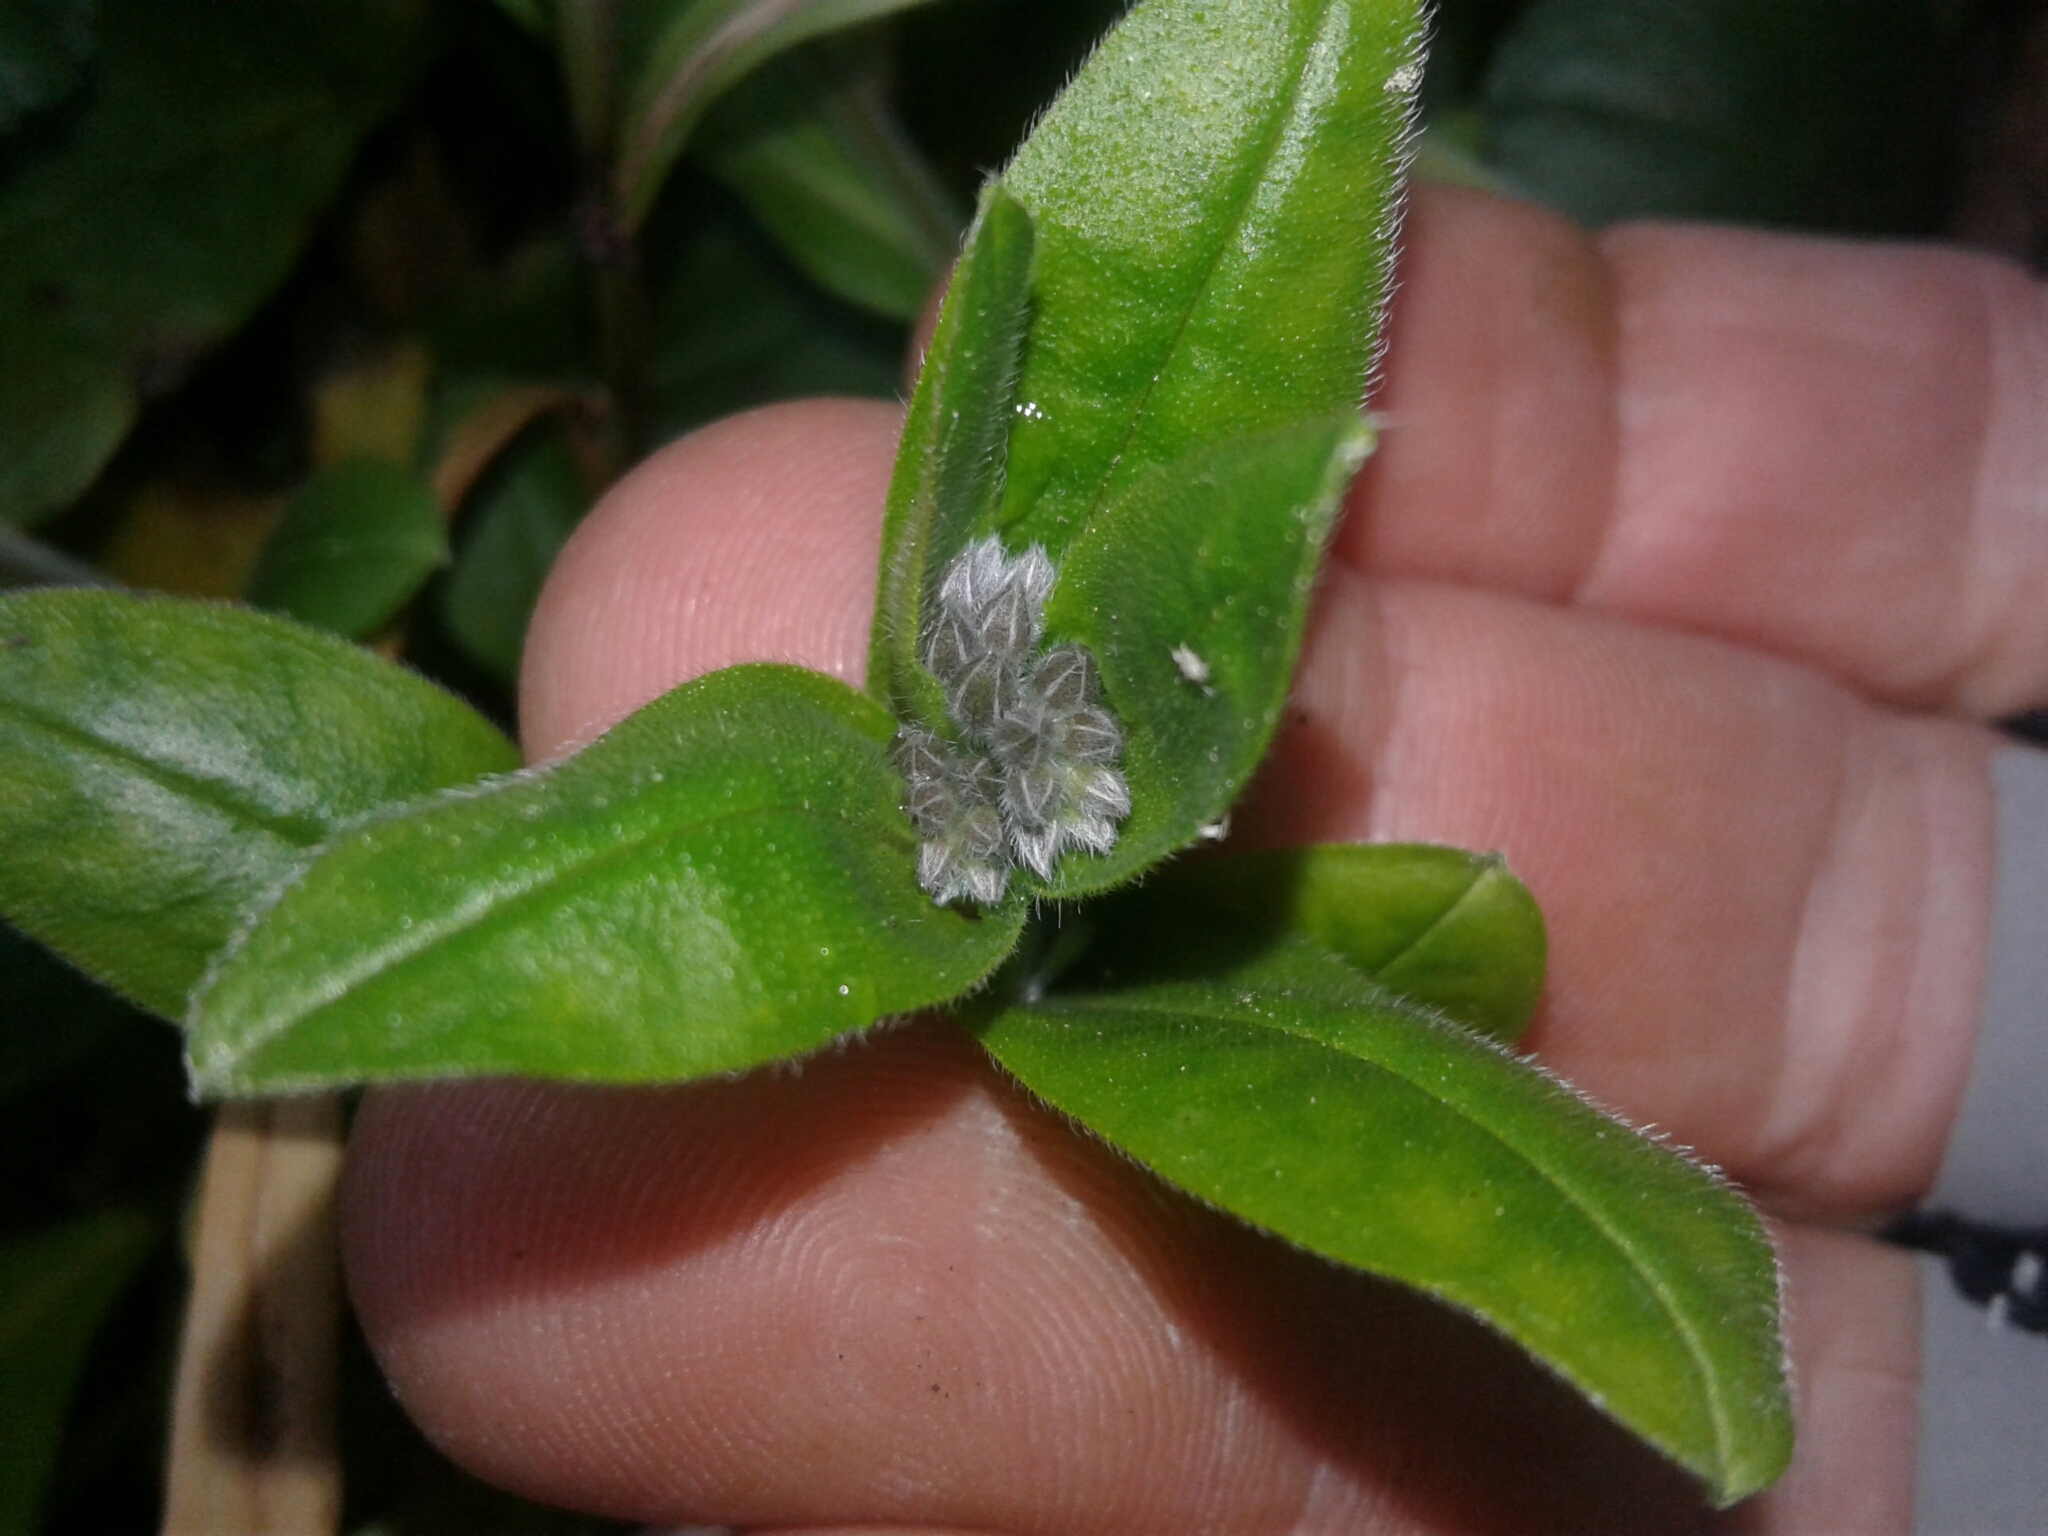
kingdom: Plantae
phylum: Tracheophyta
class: Magnoliopsida
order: Boraginales
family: Boraginaceae
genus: Myosotis
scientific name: Myosotis sylvatica
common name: Wood forget-me-not
